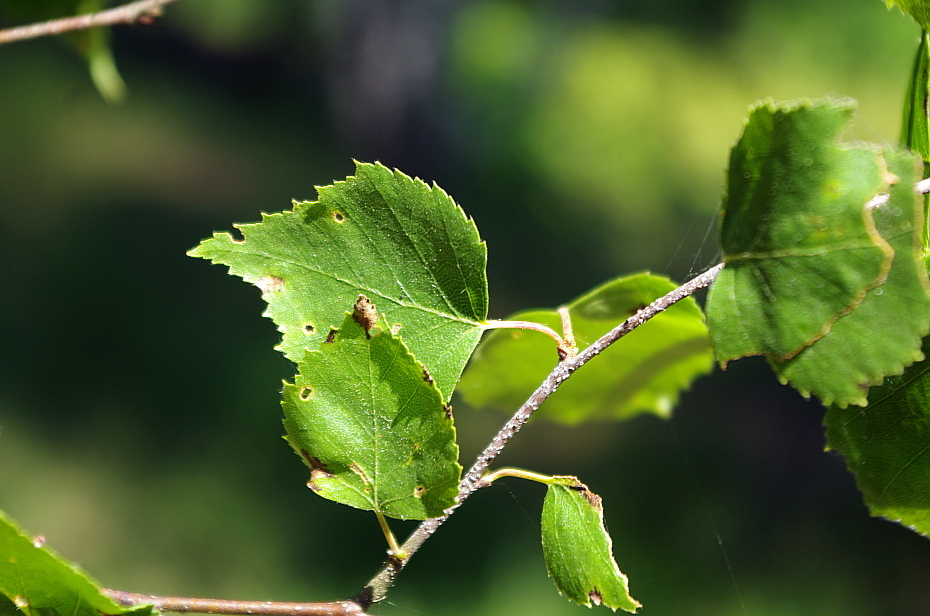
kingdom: Plantae
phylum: Tracheophyta
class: Magnoliopsida
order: Fagales
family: Betulaceae
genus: Betula
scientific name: Betula pendula
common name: Silver birch
